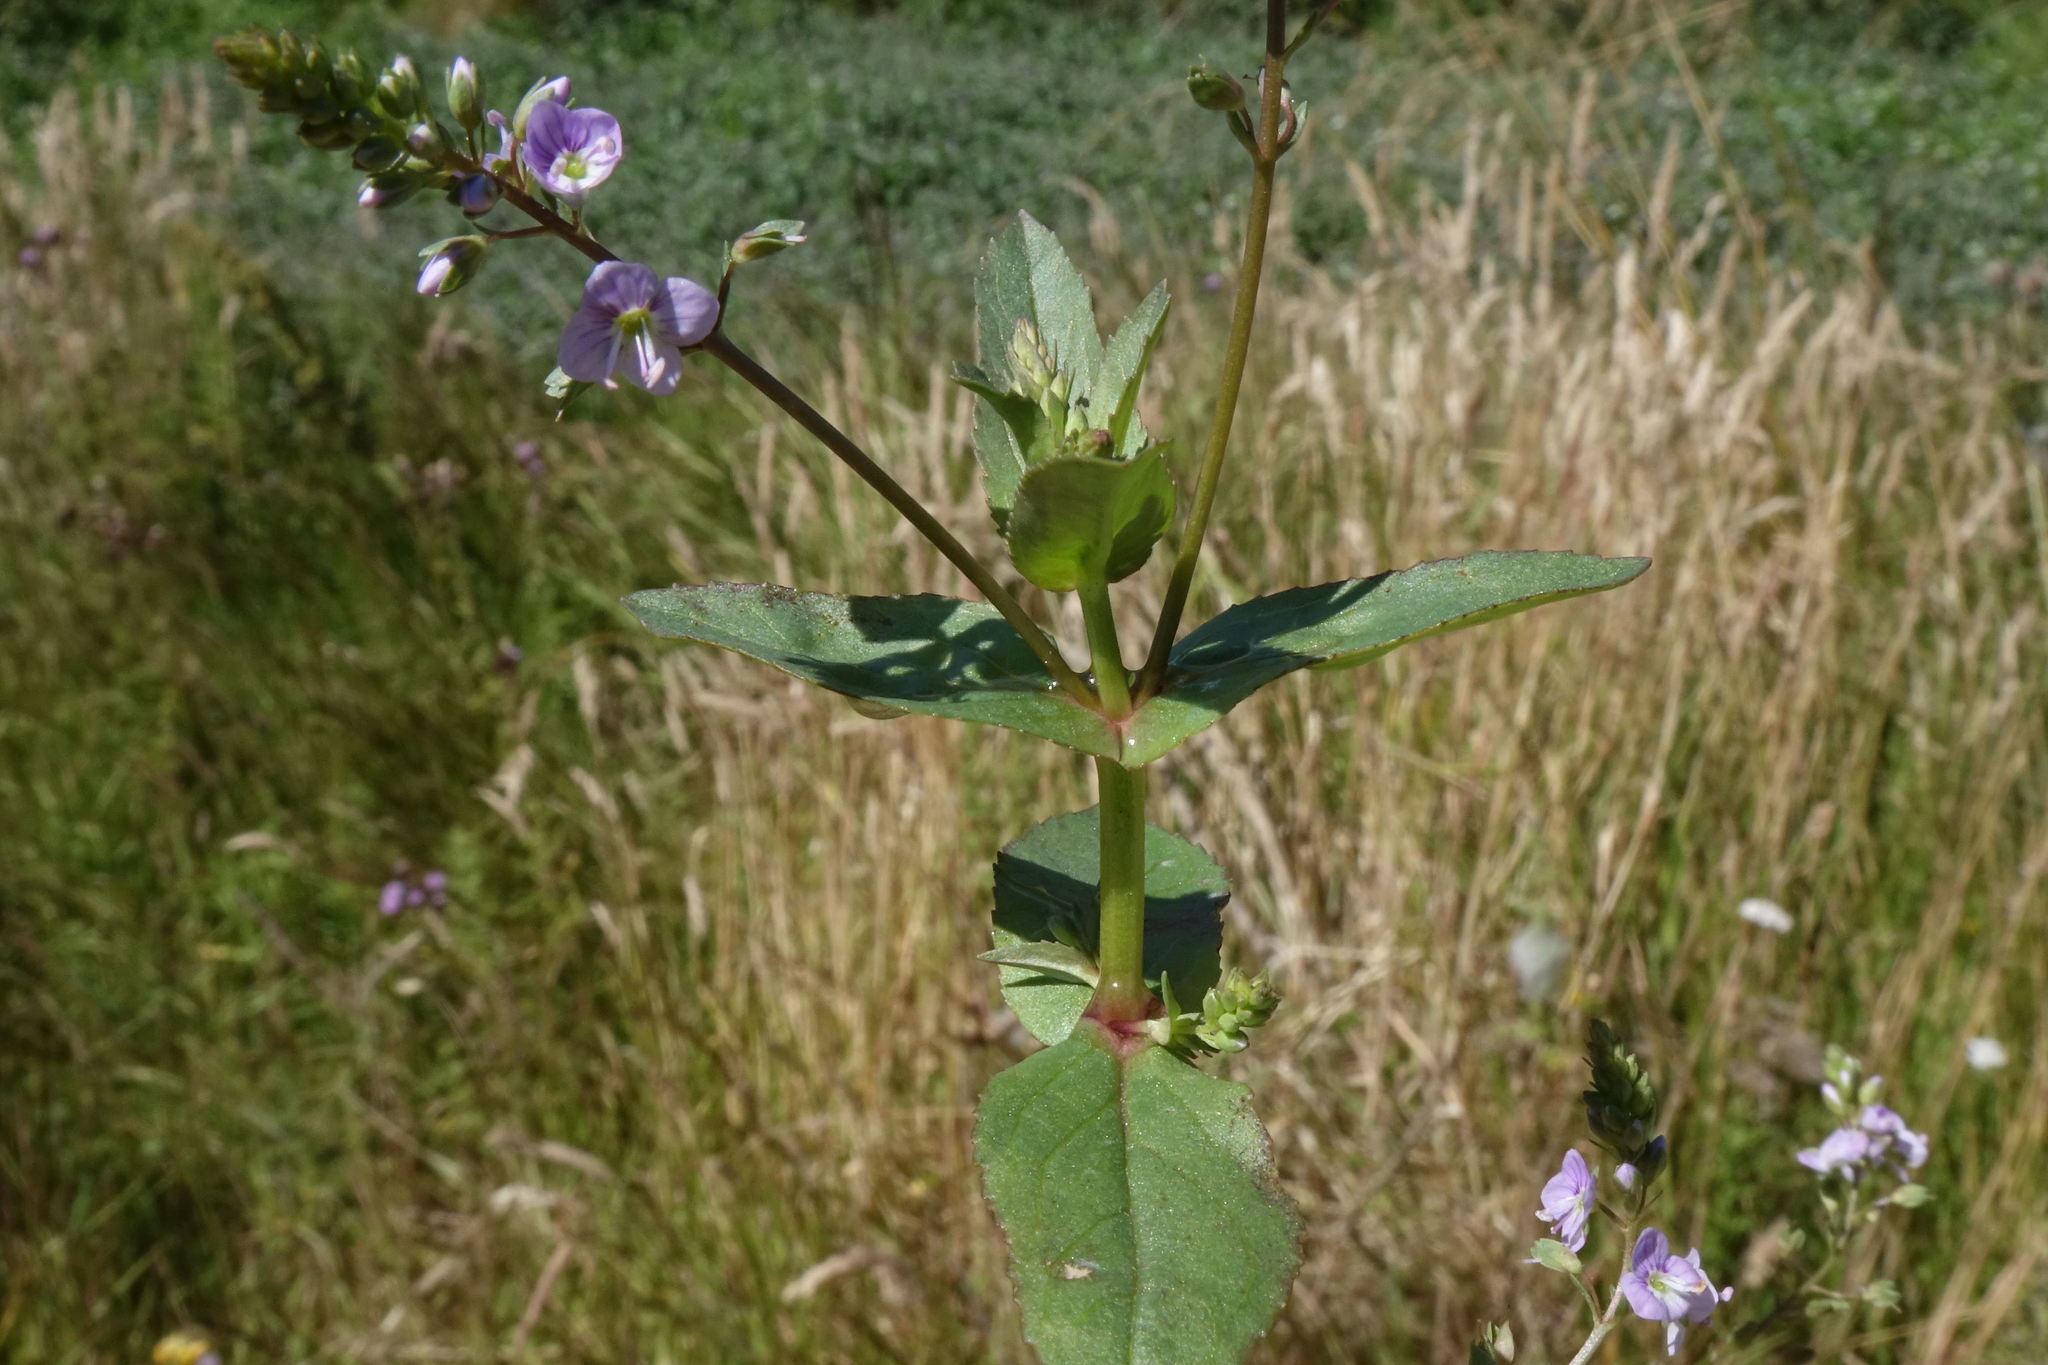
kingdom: Plantae
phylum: Tracheophyta
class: Magnoliopsida
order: Lamiales
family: Plantaginaceae
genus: Veronica
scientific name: Veronica anagallis-aquatica
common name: Water speedwell
